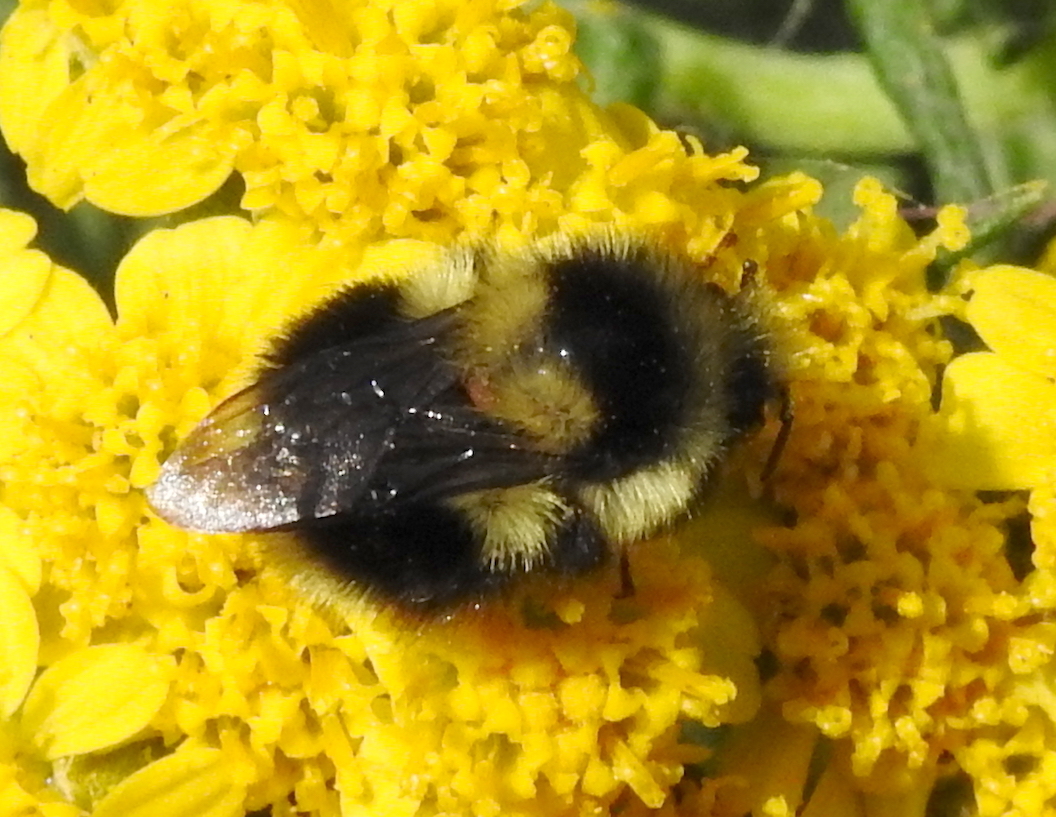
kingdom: Animalia
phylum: Arthropoda
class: Insecta
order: Hymenoptera
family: Apidae
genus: Bombus
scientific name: Bombus melanopygus
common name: Black tail bumble bee
